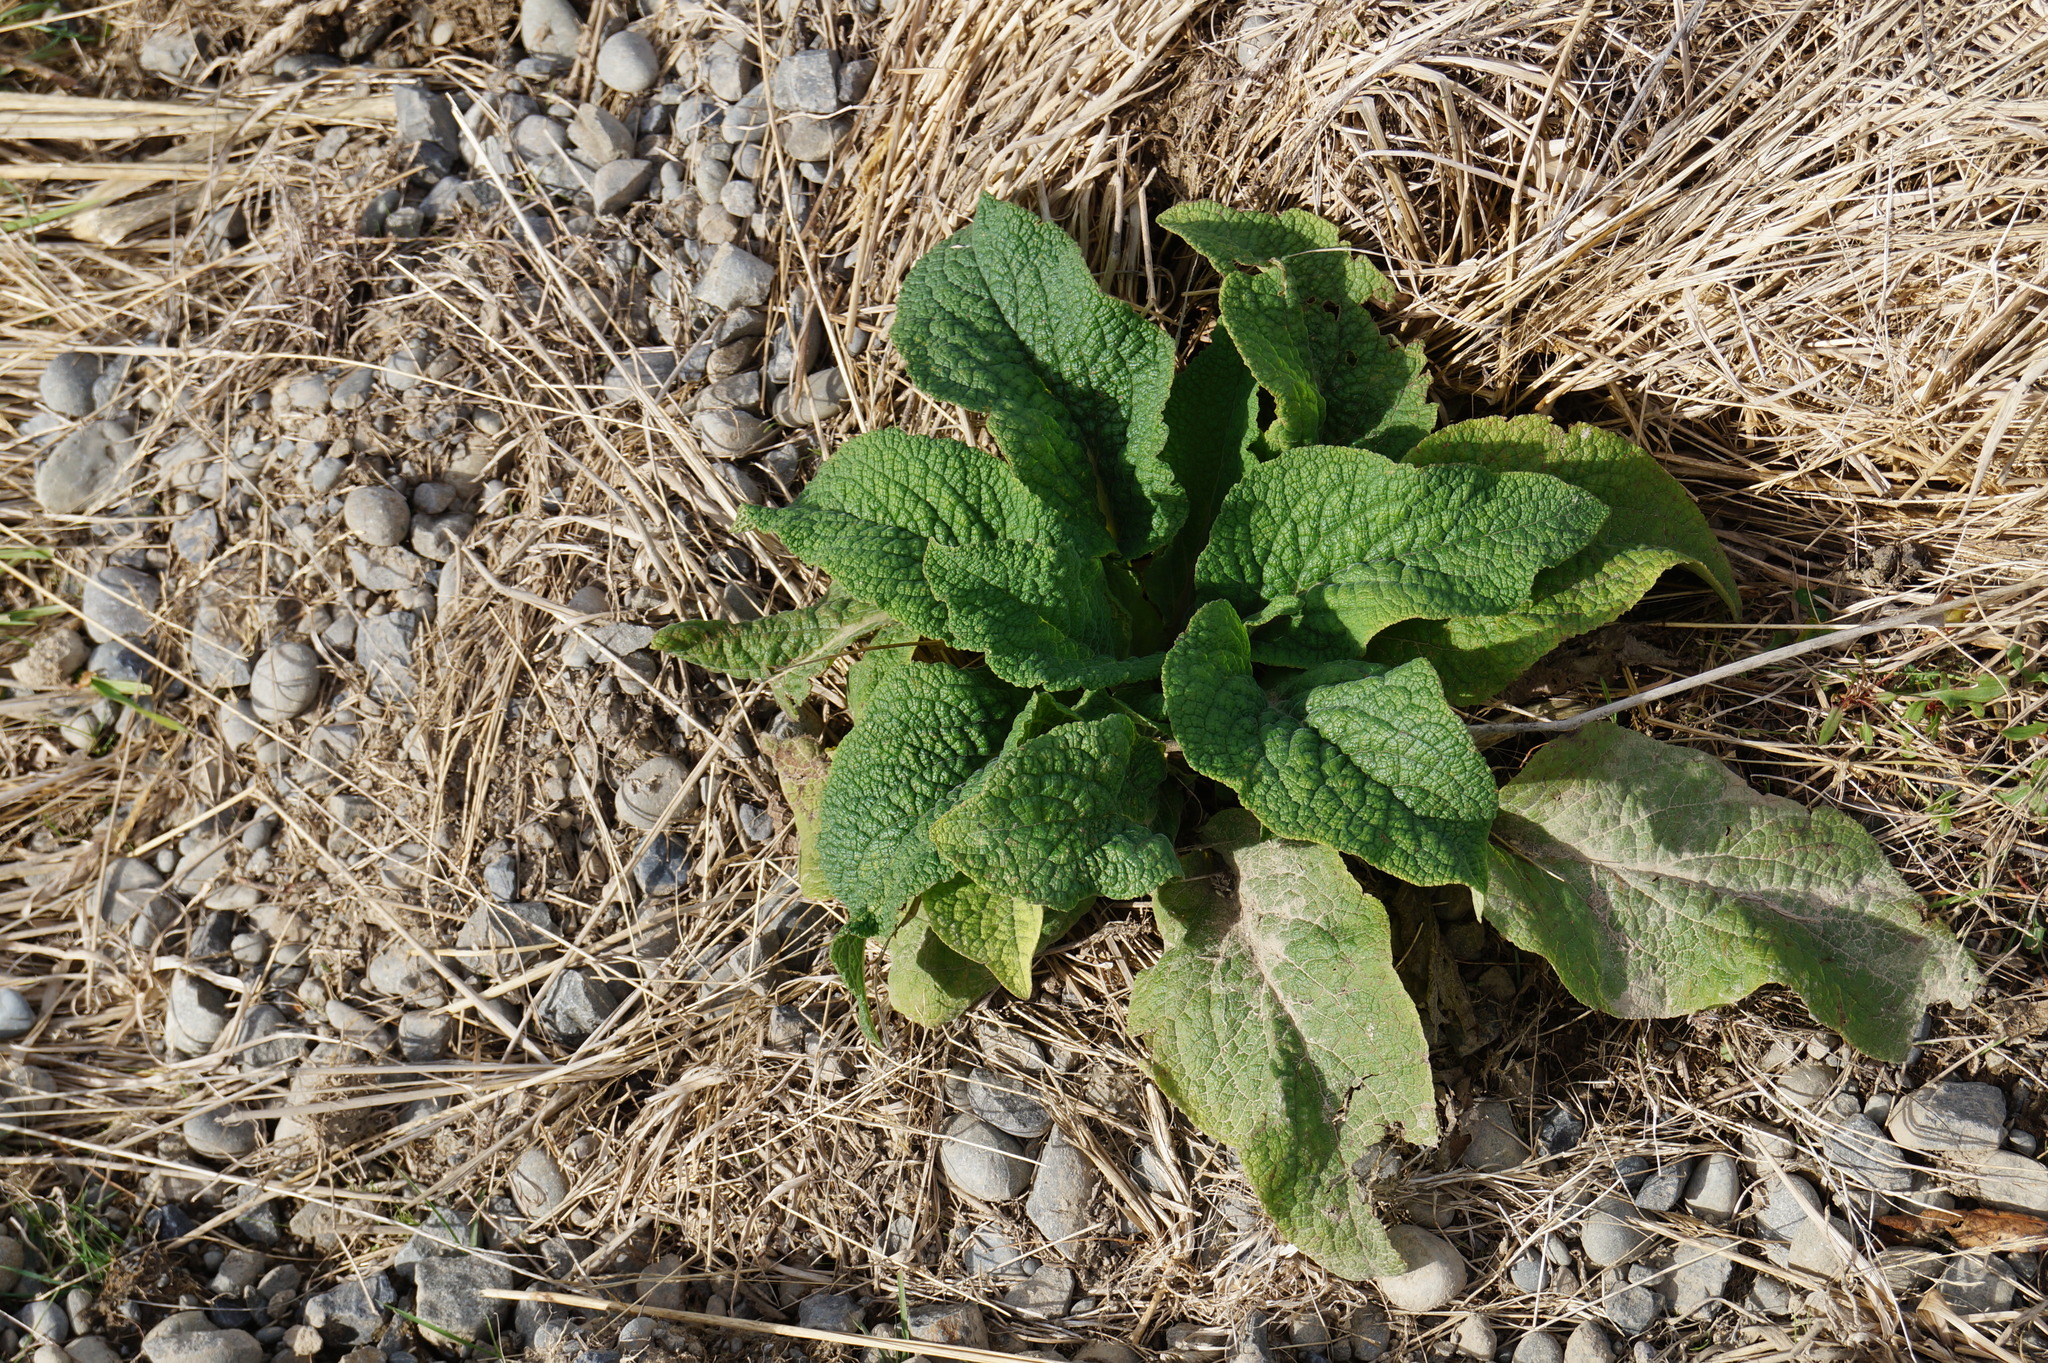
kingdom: Plantae
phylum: Tracheophyta
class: Magnoliopsida
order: Lamiales
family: Plantaginaceae
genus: Digitalis
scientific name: Digitalis purpurea
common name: Foxglove
